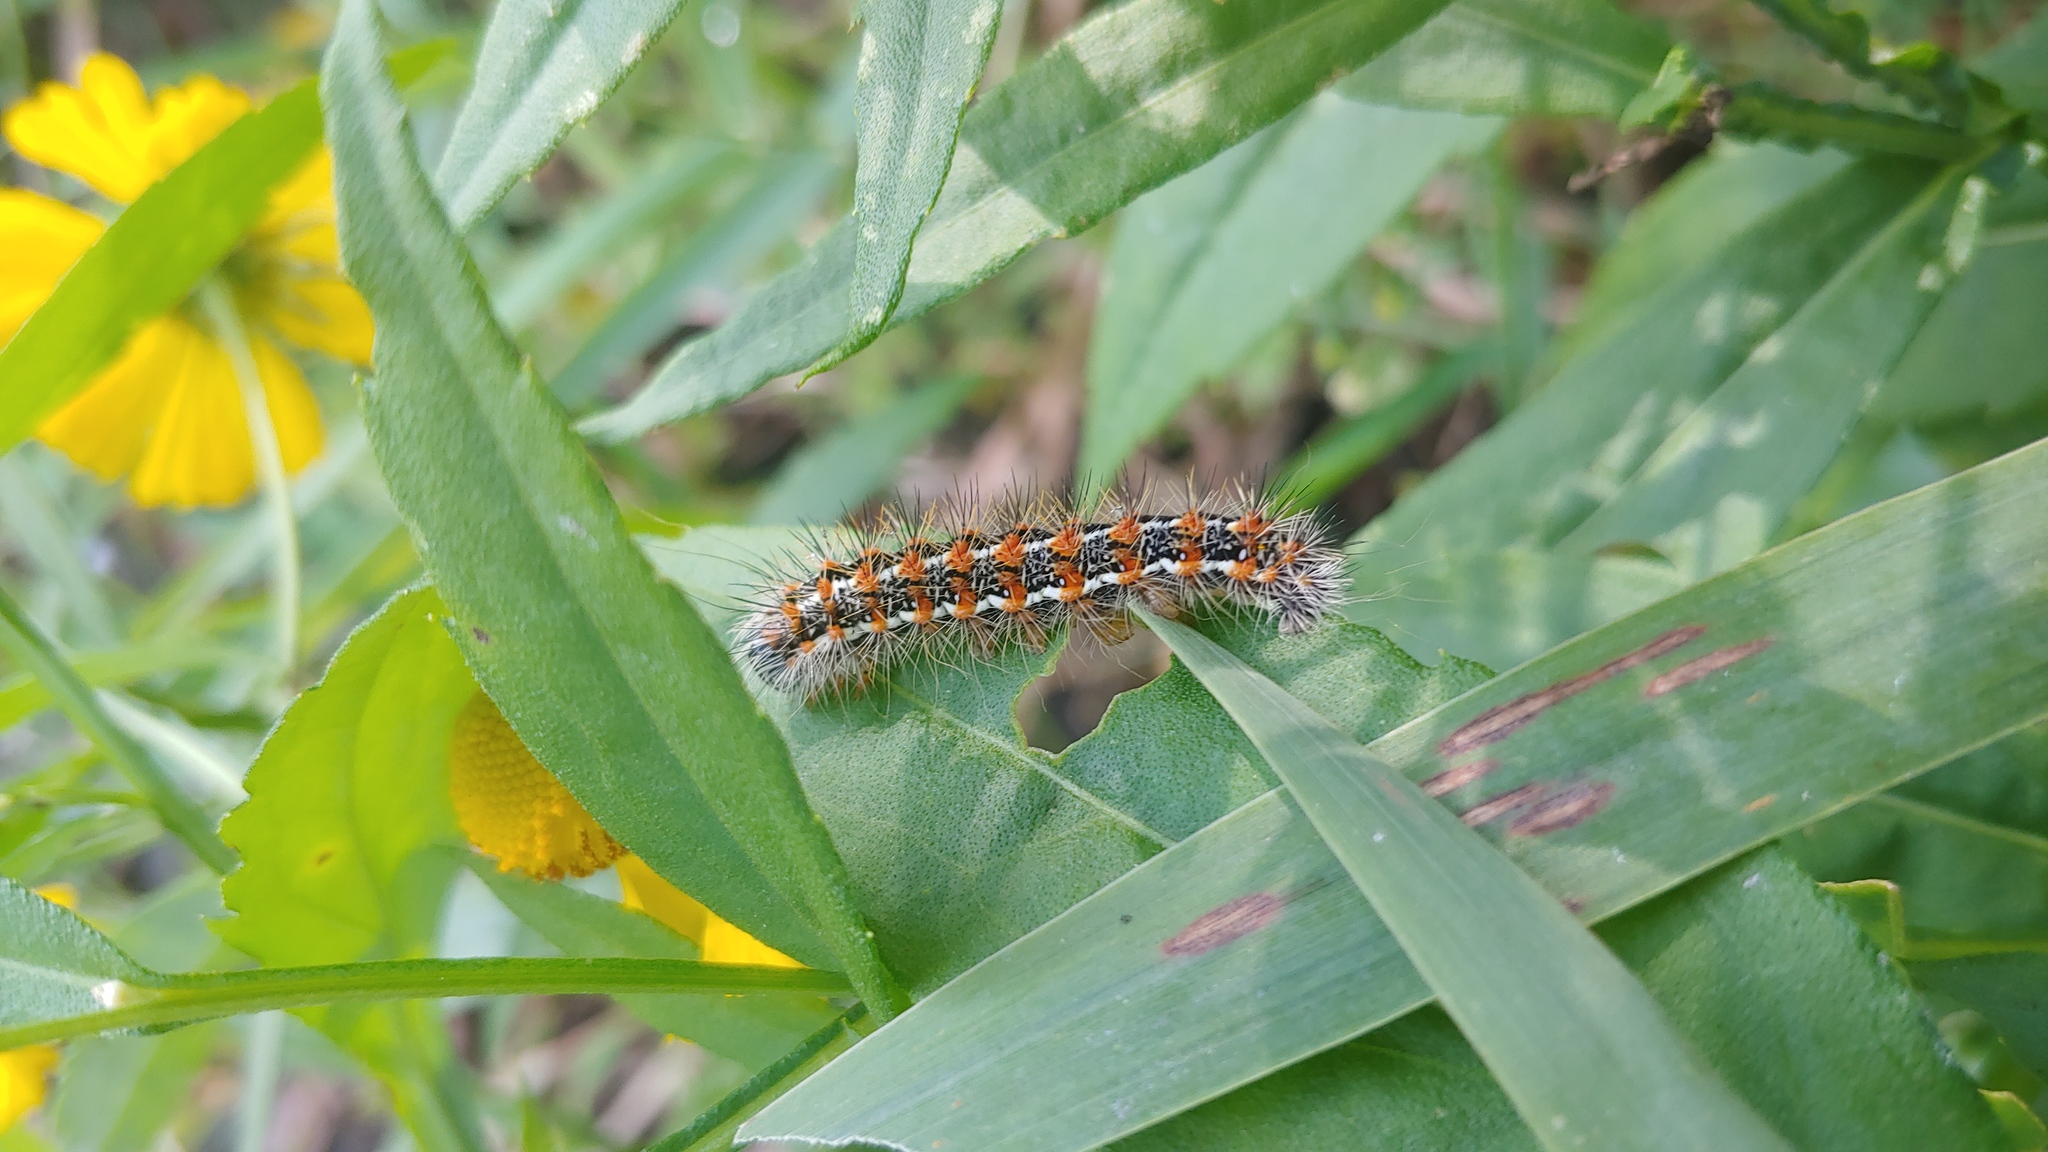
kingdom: Animalia
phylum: Arthropoda
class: Insecta
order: Lepidoptera
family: Noctuidae
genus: Acronicta
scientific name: Acronicta insularis
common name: Henry's marsh moth
